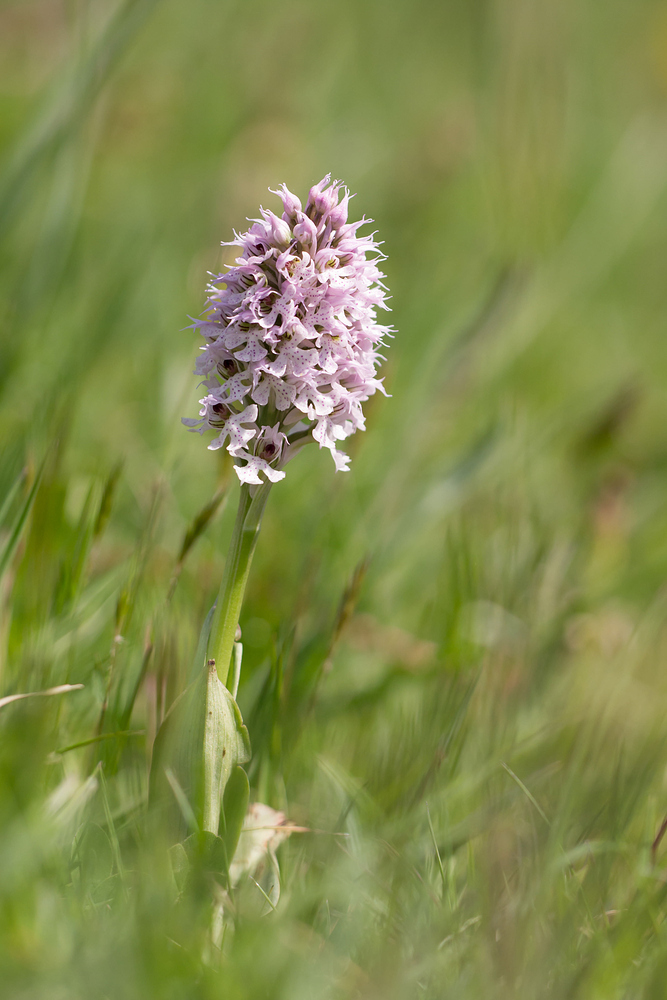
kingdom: Plantae
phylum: Tracheophyta
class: Liliopsida
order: Asparagales
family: Orchidaceae
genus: Neotinea
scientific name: Neotinea conica
